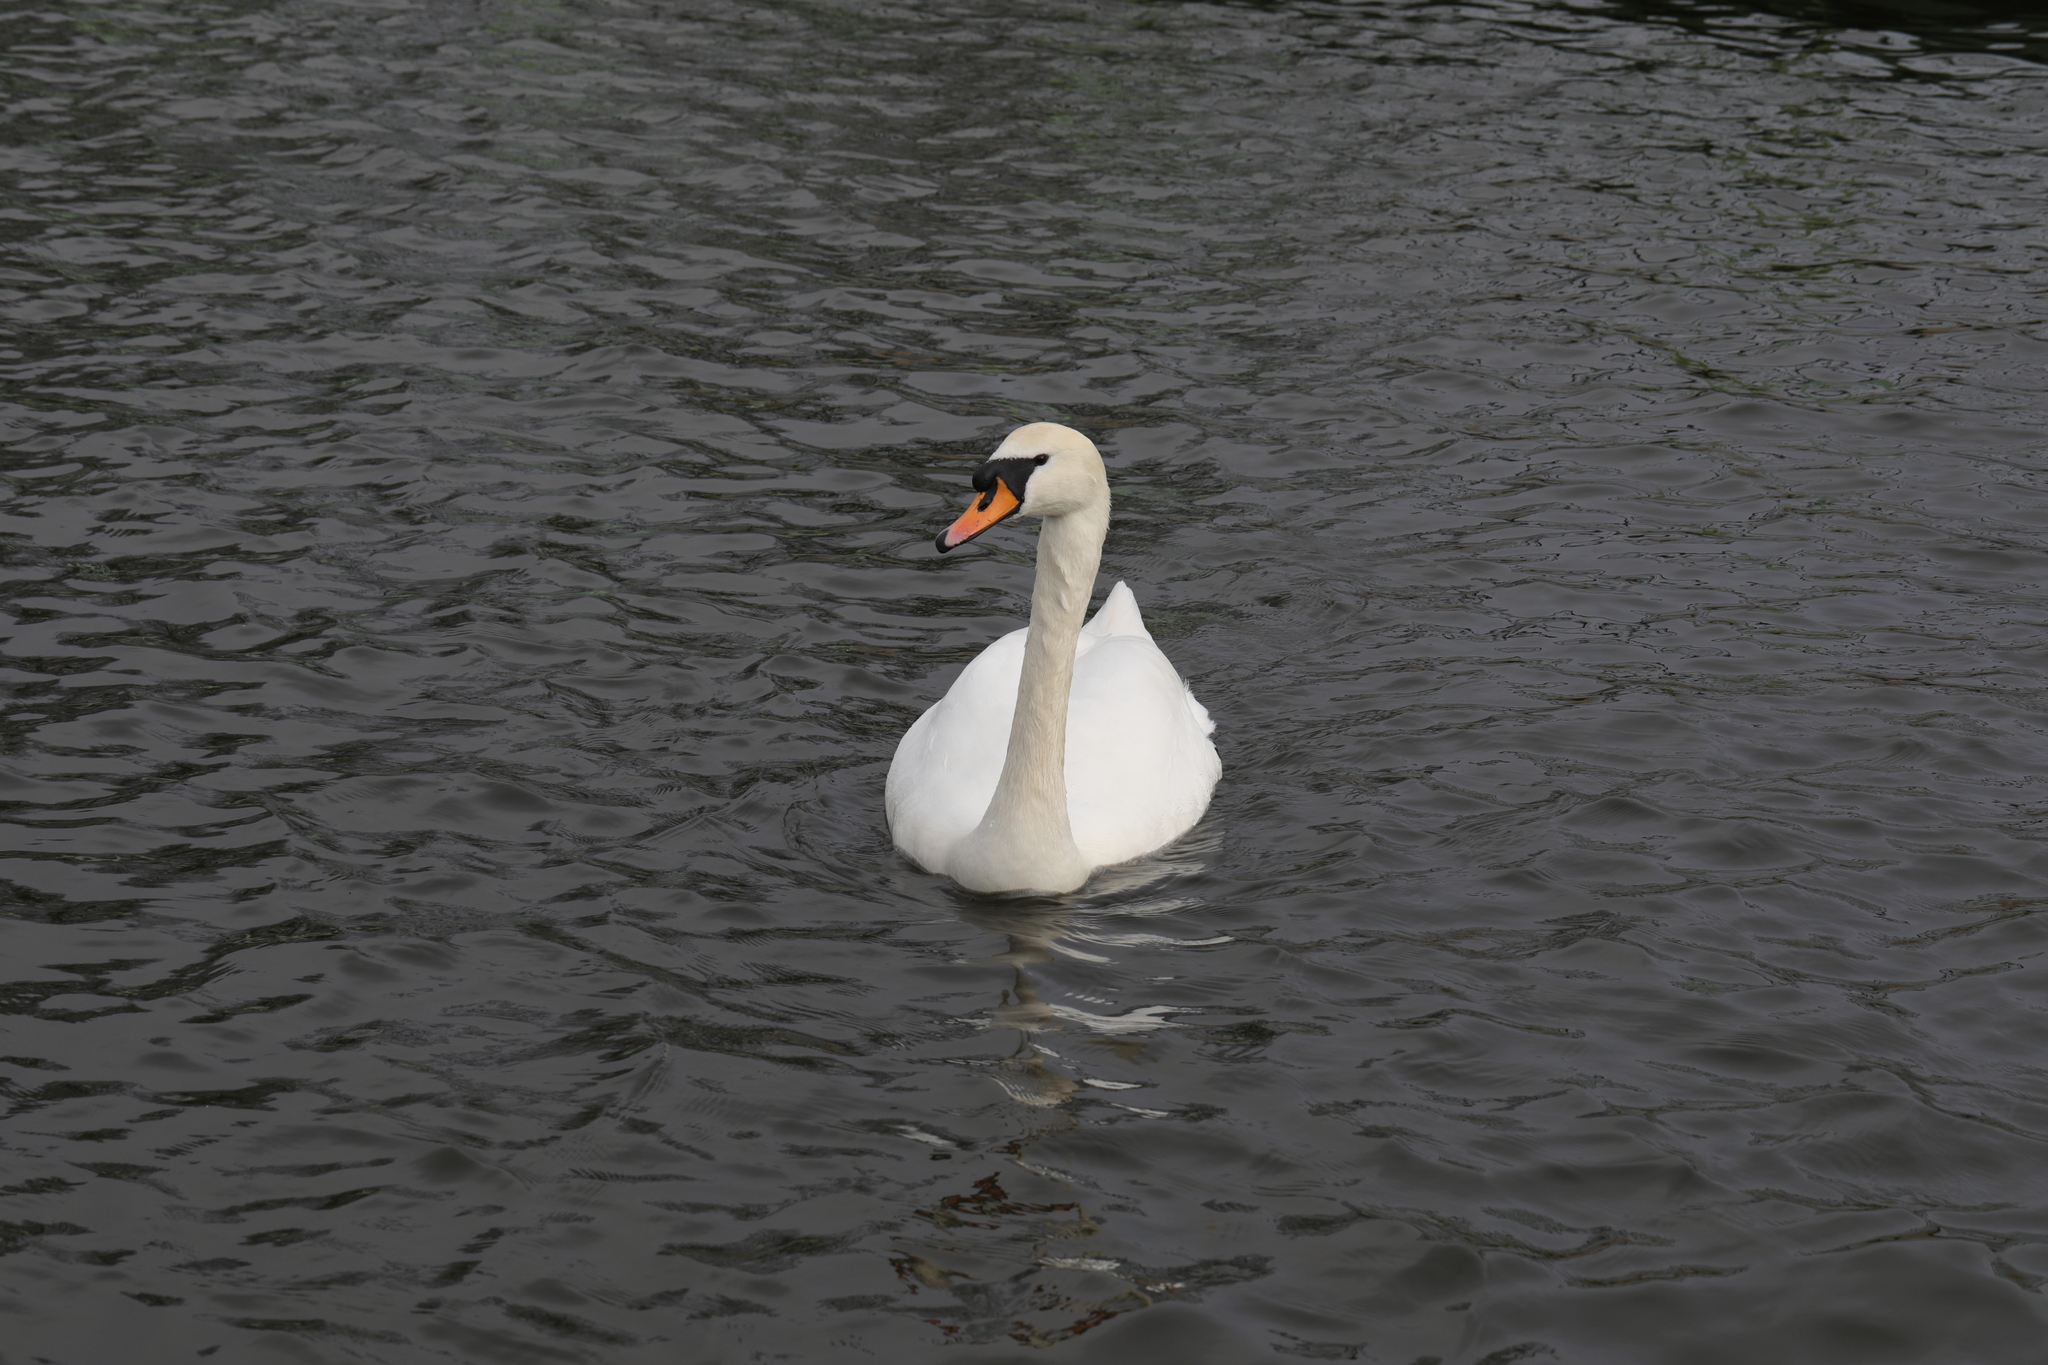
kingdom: Animalia
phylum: Chordata
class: Aves
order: Anseriformes
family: Anatidae
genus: Cygnus
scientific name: Cygnus olor
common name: Mute swan
